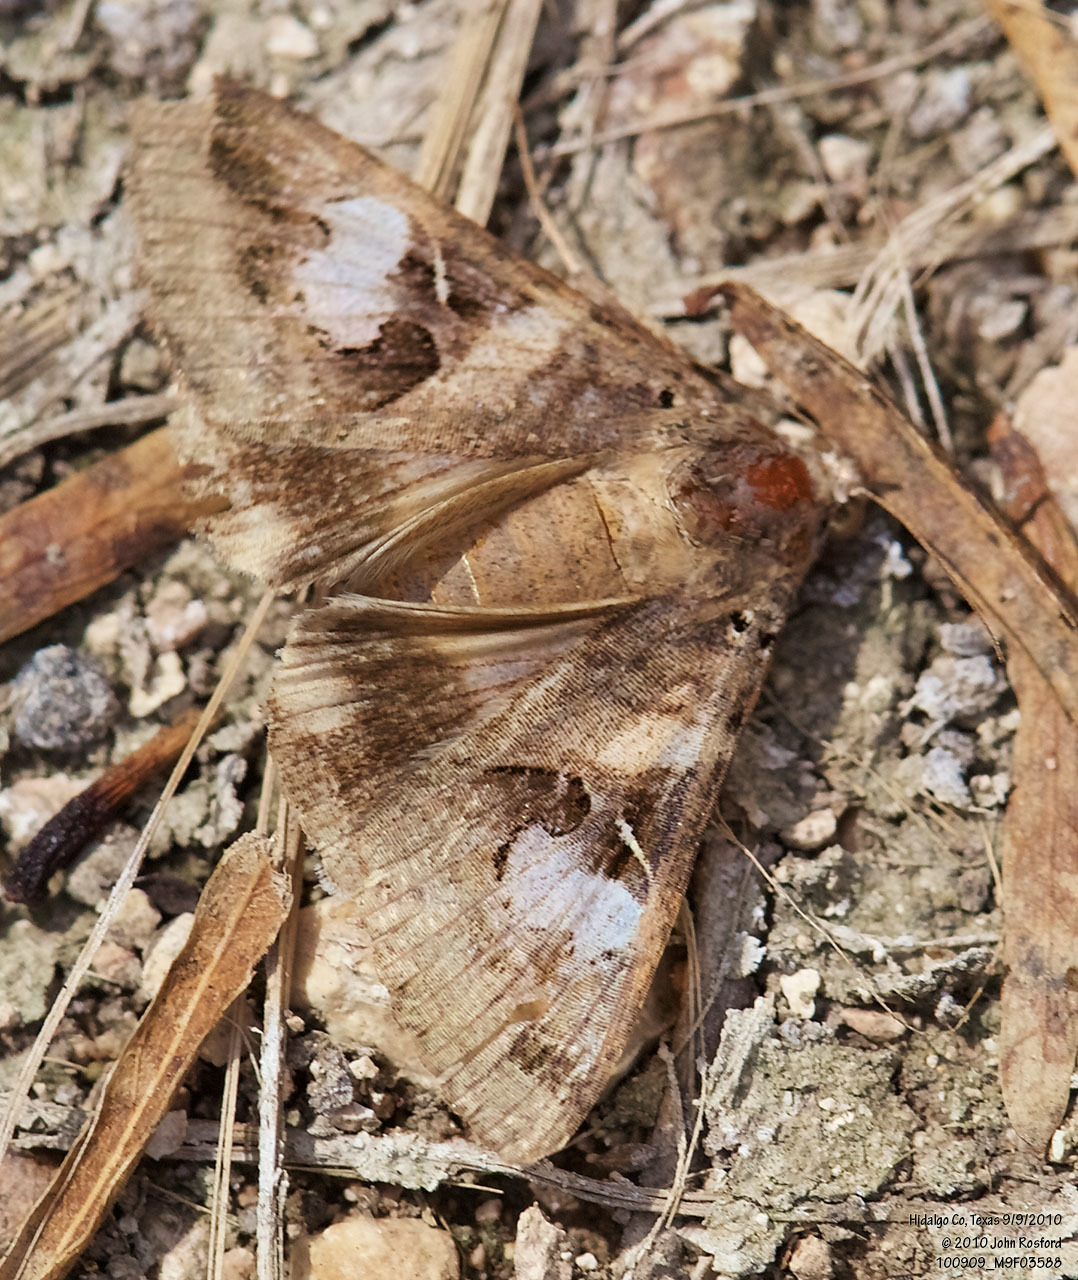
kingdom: Animalia
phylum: Arthropoda
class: Insecta
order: Lepidoptera
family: Erebidae
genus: Melipotis
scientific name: Melipotis indomita
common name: Moth
